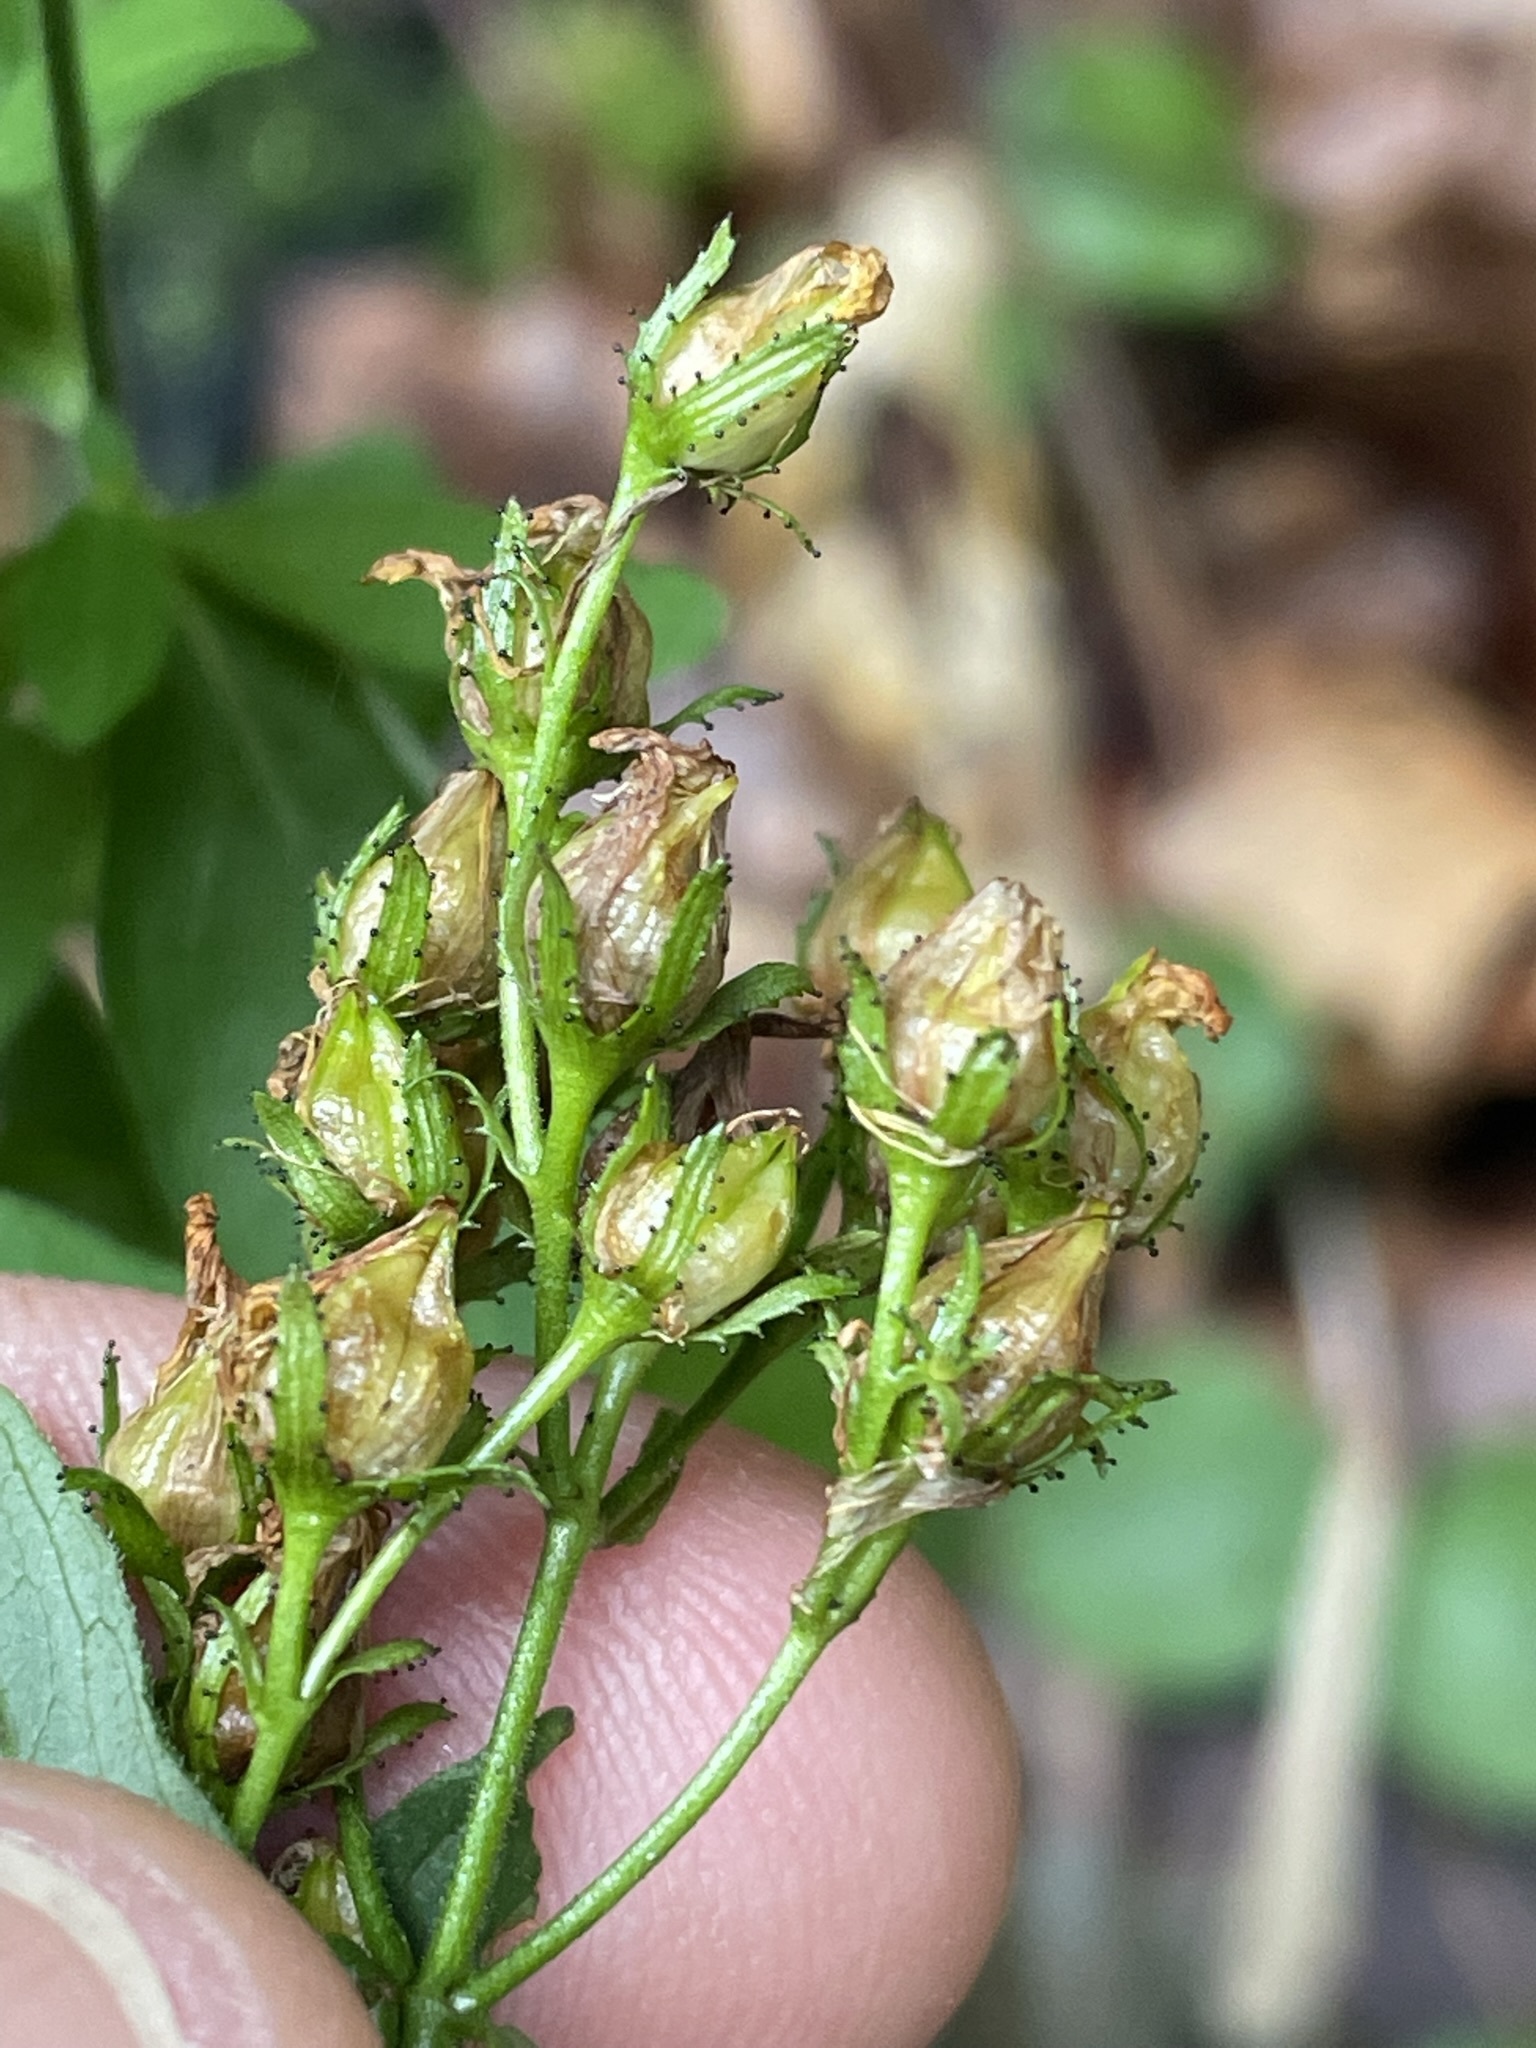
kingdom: Plantae
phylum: Tracheophyta
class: Magnoliopsida
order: Malpighiales
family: Hypericaceae
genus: Hypericum
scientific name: Hypericum hirsutum
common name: Hairy st. john's-wort
